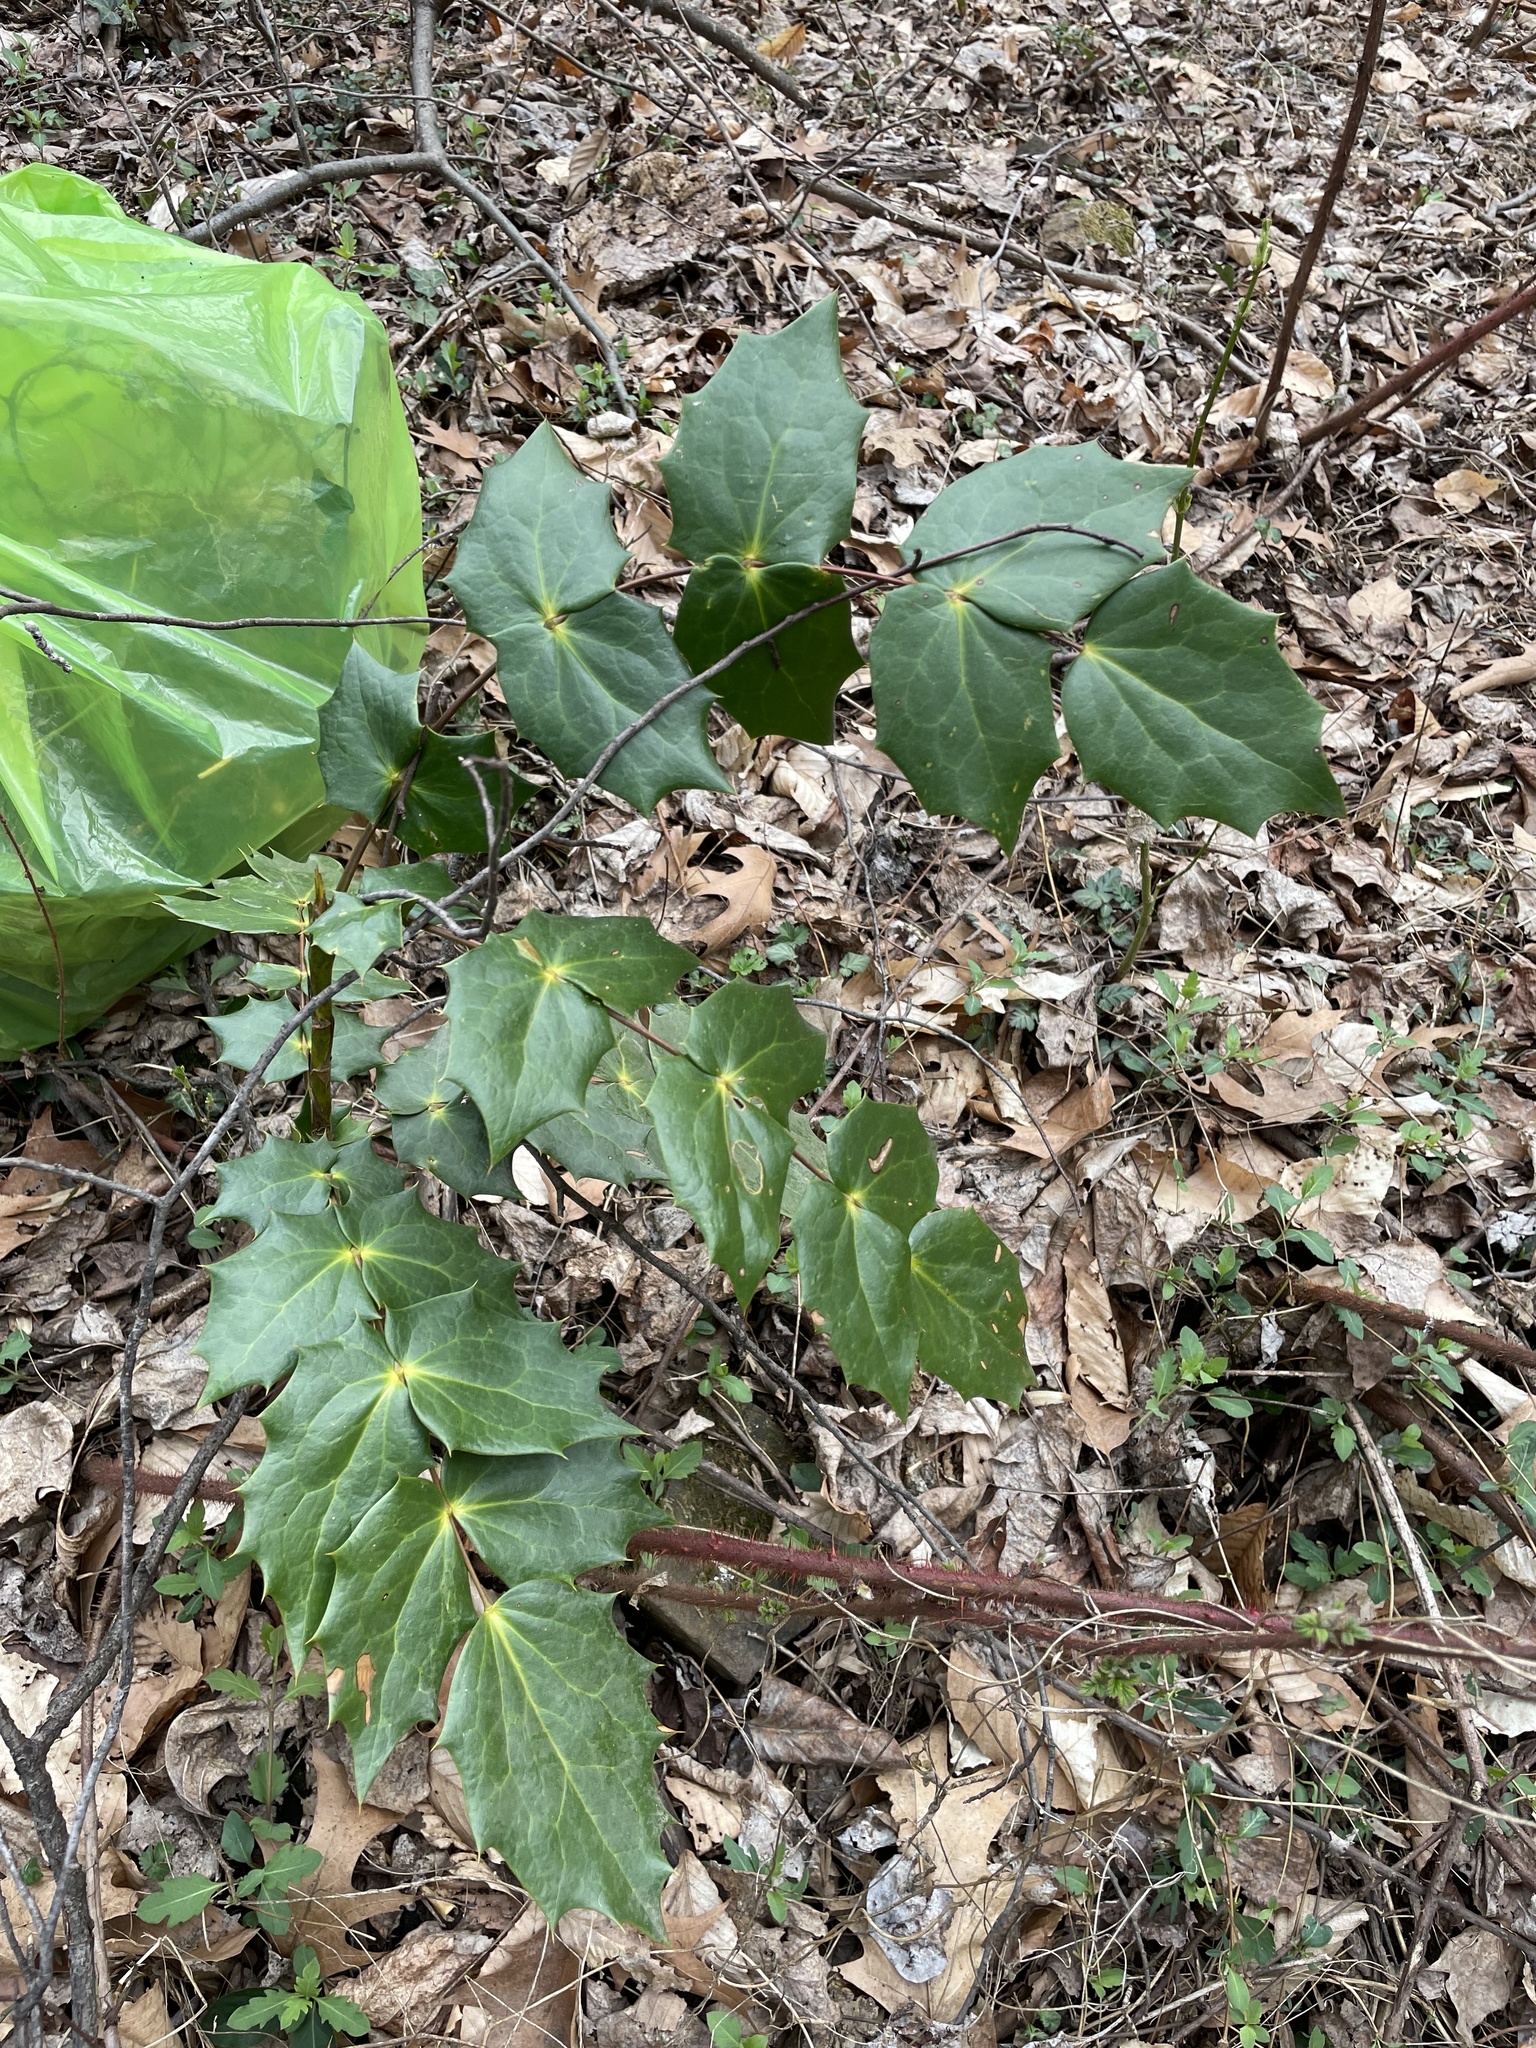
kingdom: Plantae
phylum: Tracheophyta
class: Magnoliopsida
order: Ranunculales
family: Berberidaceae
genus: Mahonia
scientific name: Mahonia bealei
